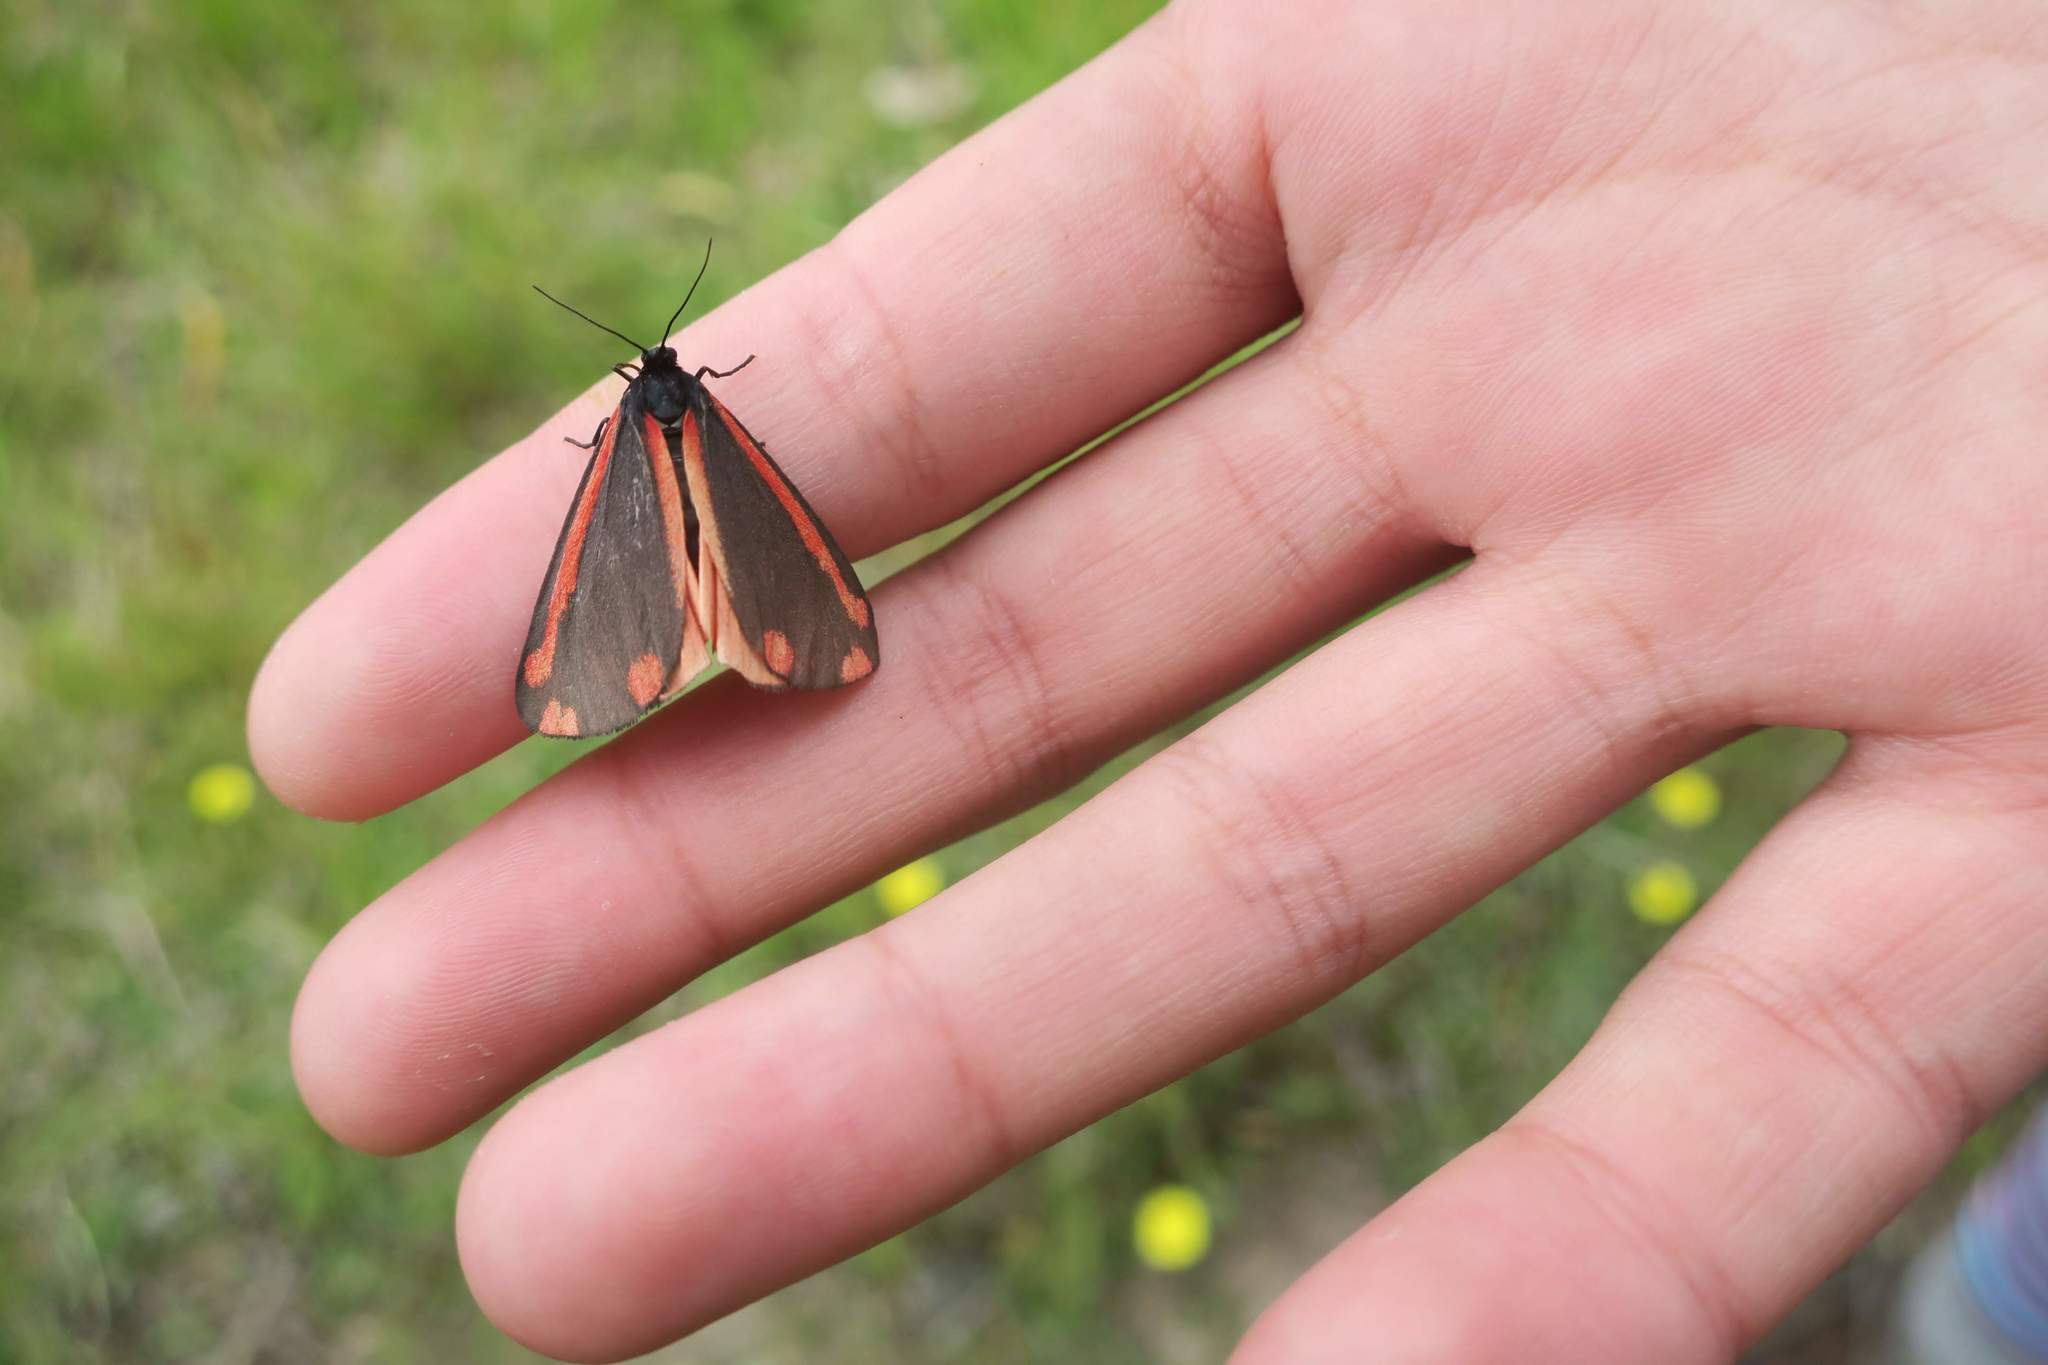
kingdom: Animalia
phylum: Arthropoda
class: Insecta
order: Lepidoptera
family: Erebidae
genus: Tyria
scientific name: Tyria jacobaeae
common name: Cinnabar
